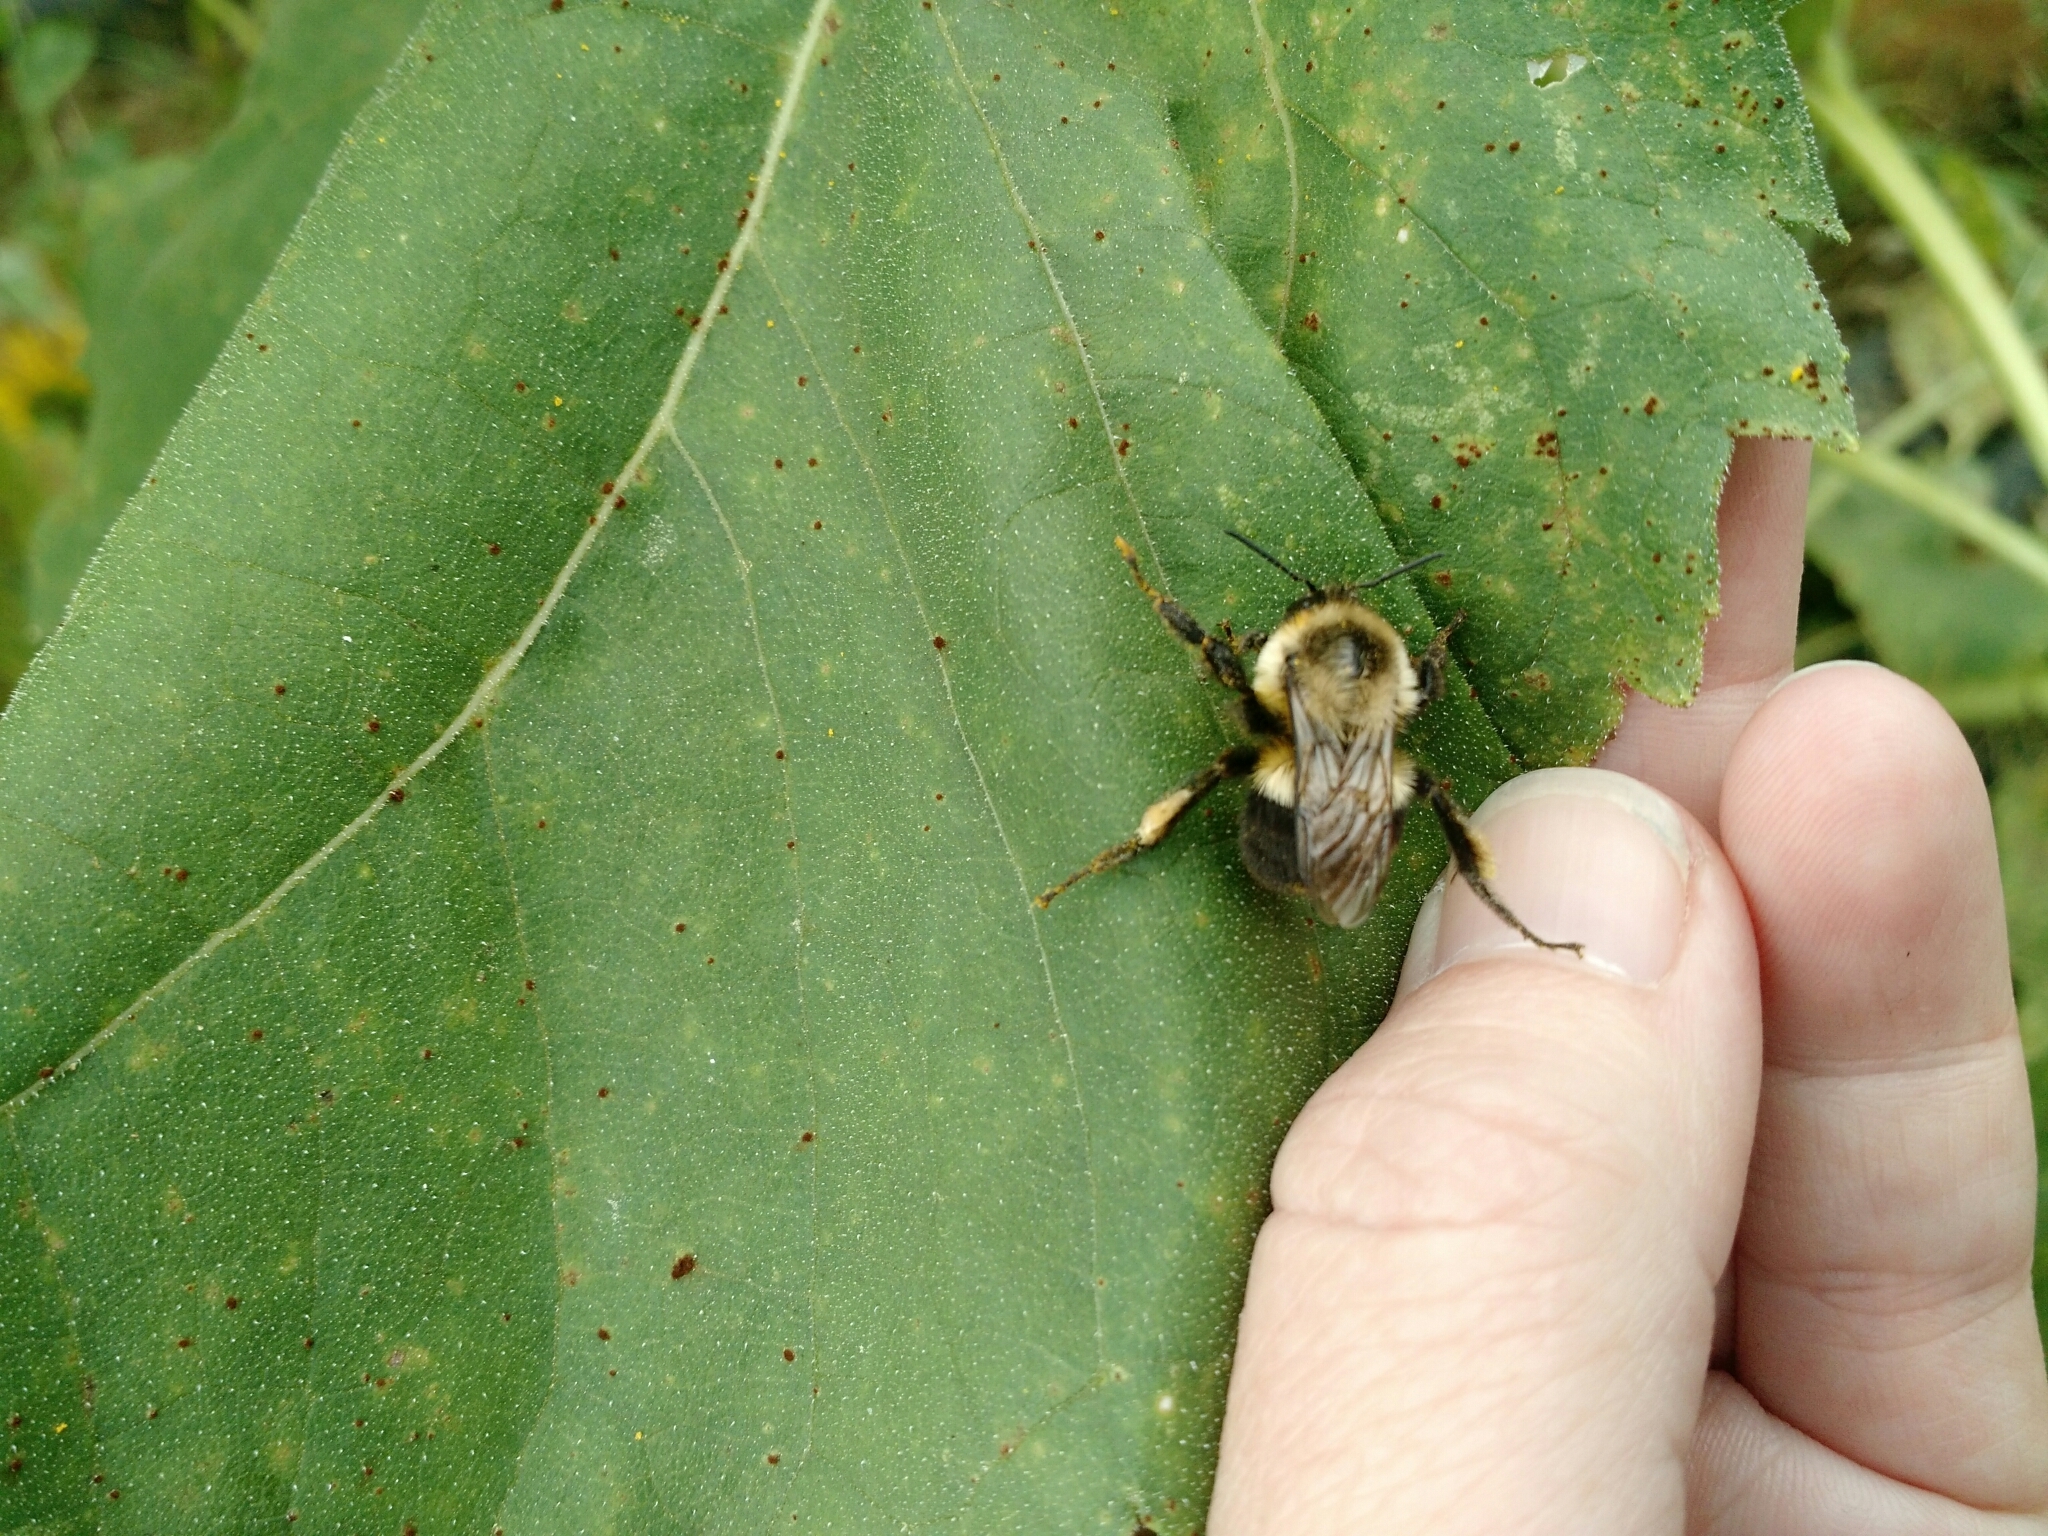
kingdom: Animalia
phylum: Arthropoda
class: Insecta
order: Hymenoptera
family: Apidae
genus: Bombus
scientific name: Bombus impatiens
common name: Common eastern bumble bee
